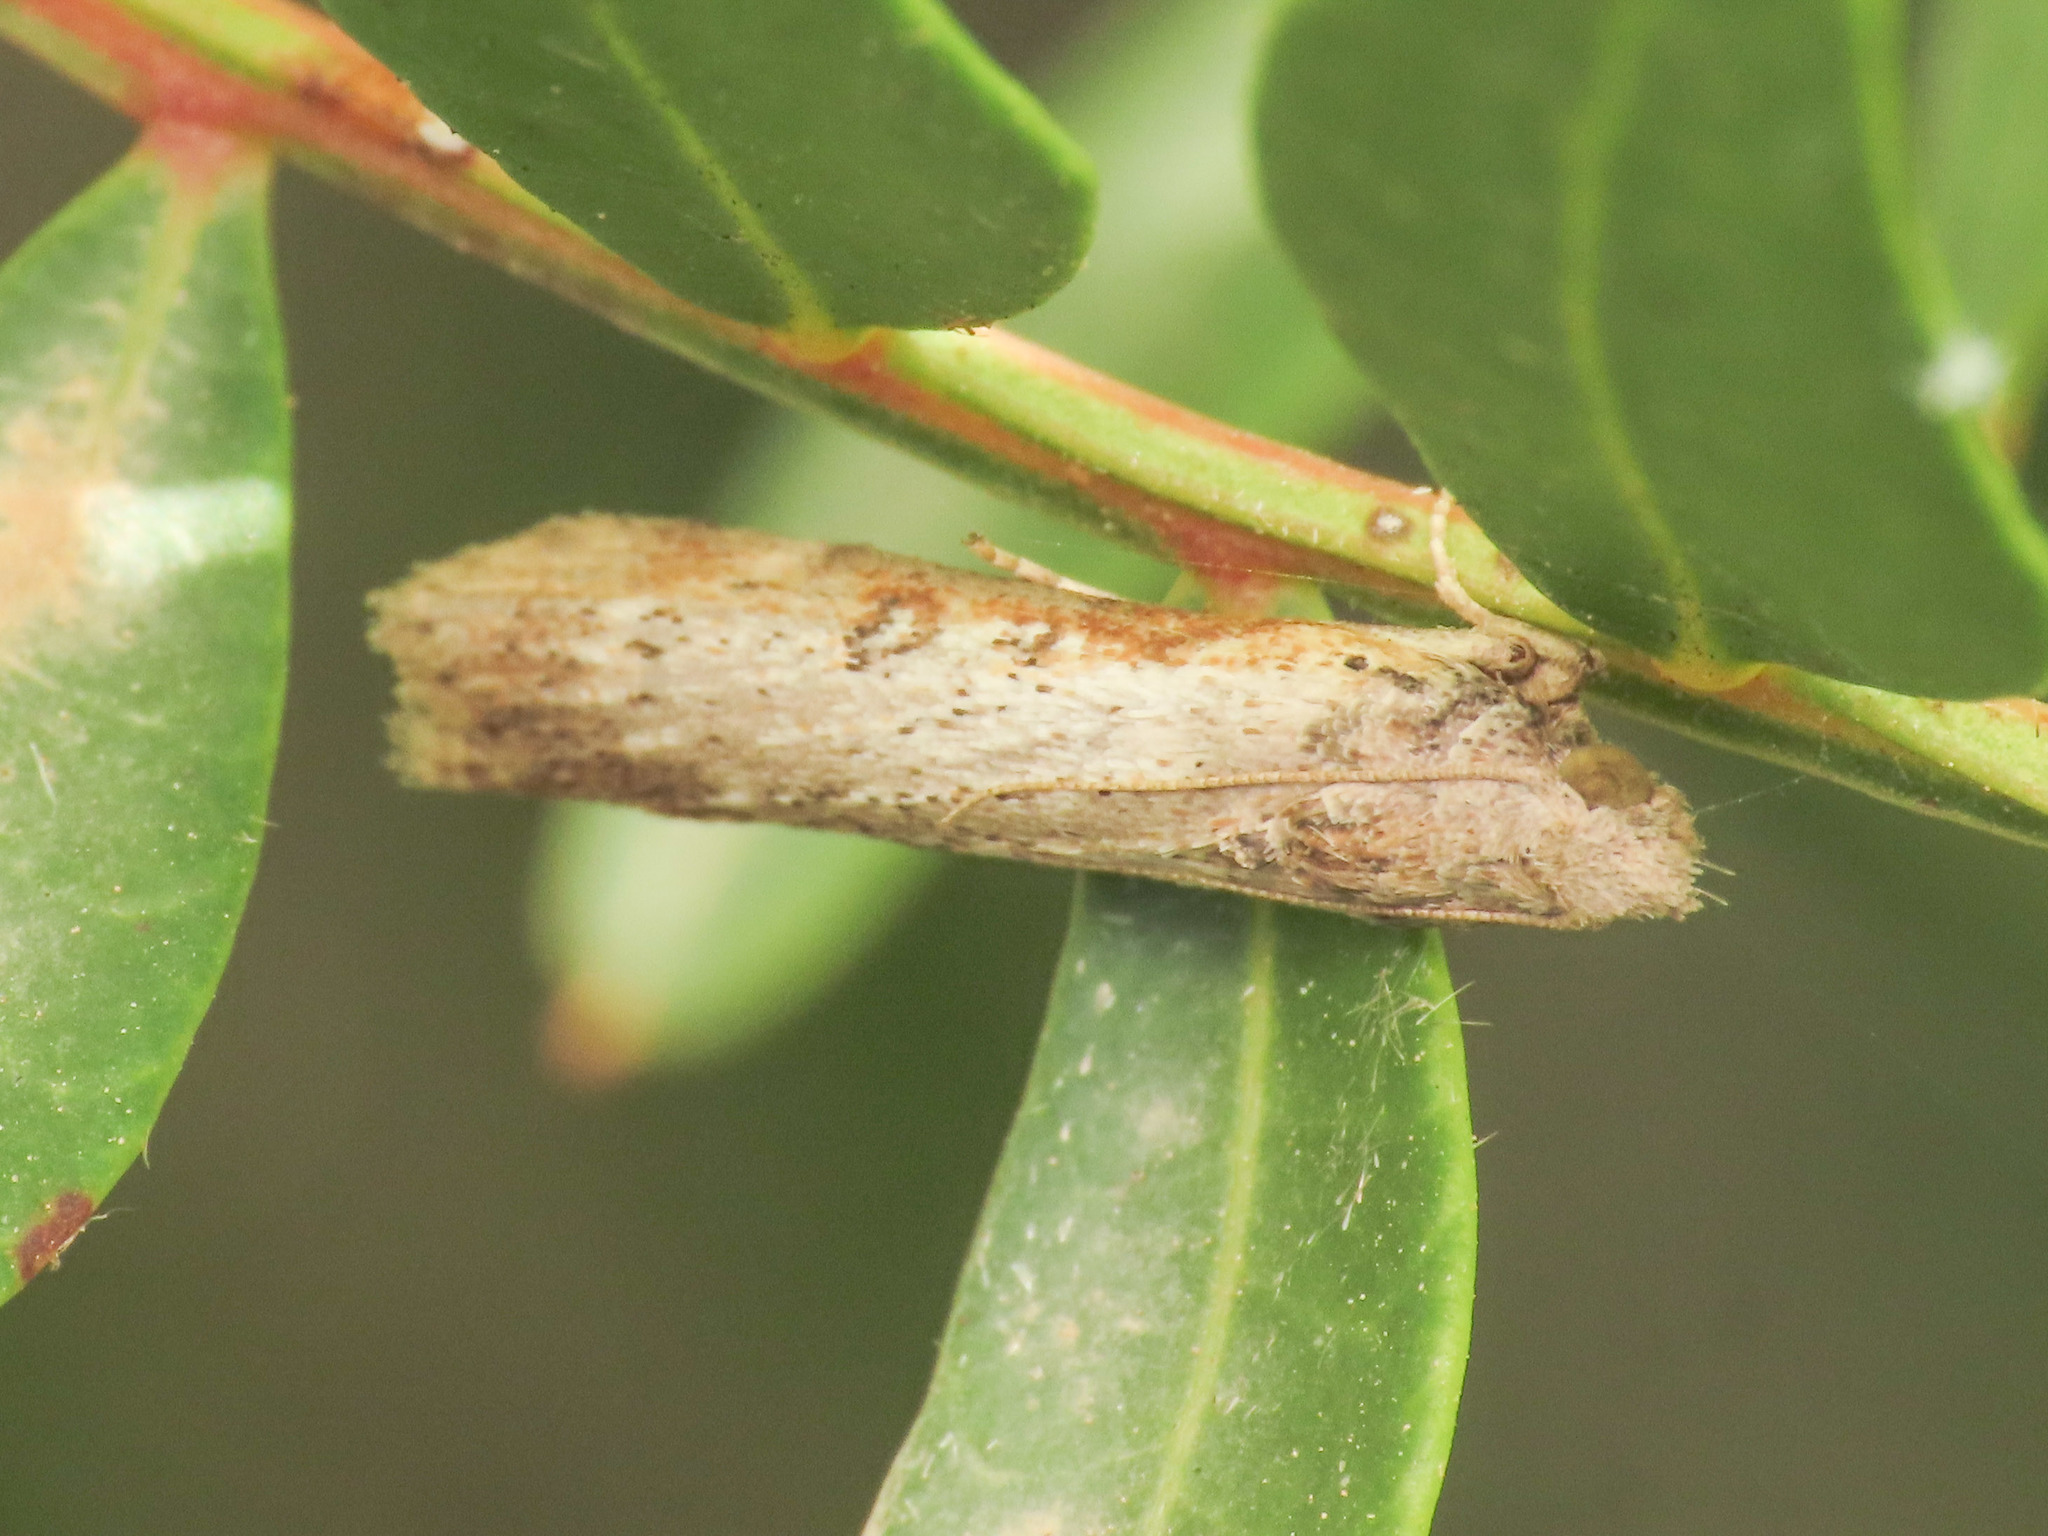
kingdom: Animalia
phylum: Arthropoda
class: Insecta
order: Lepidoptera
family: Pyralidae
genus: Lamoria
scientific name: Lamoria anella
